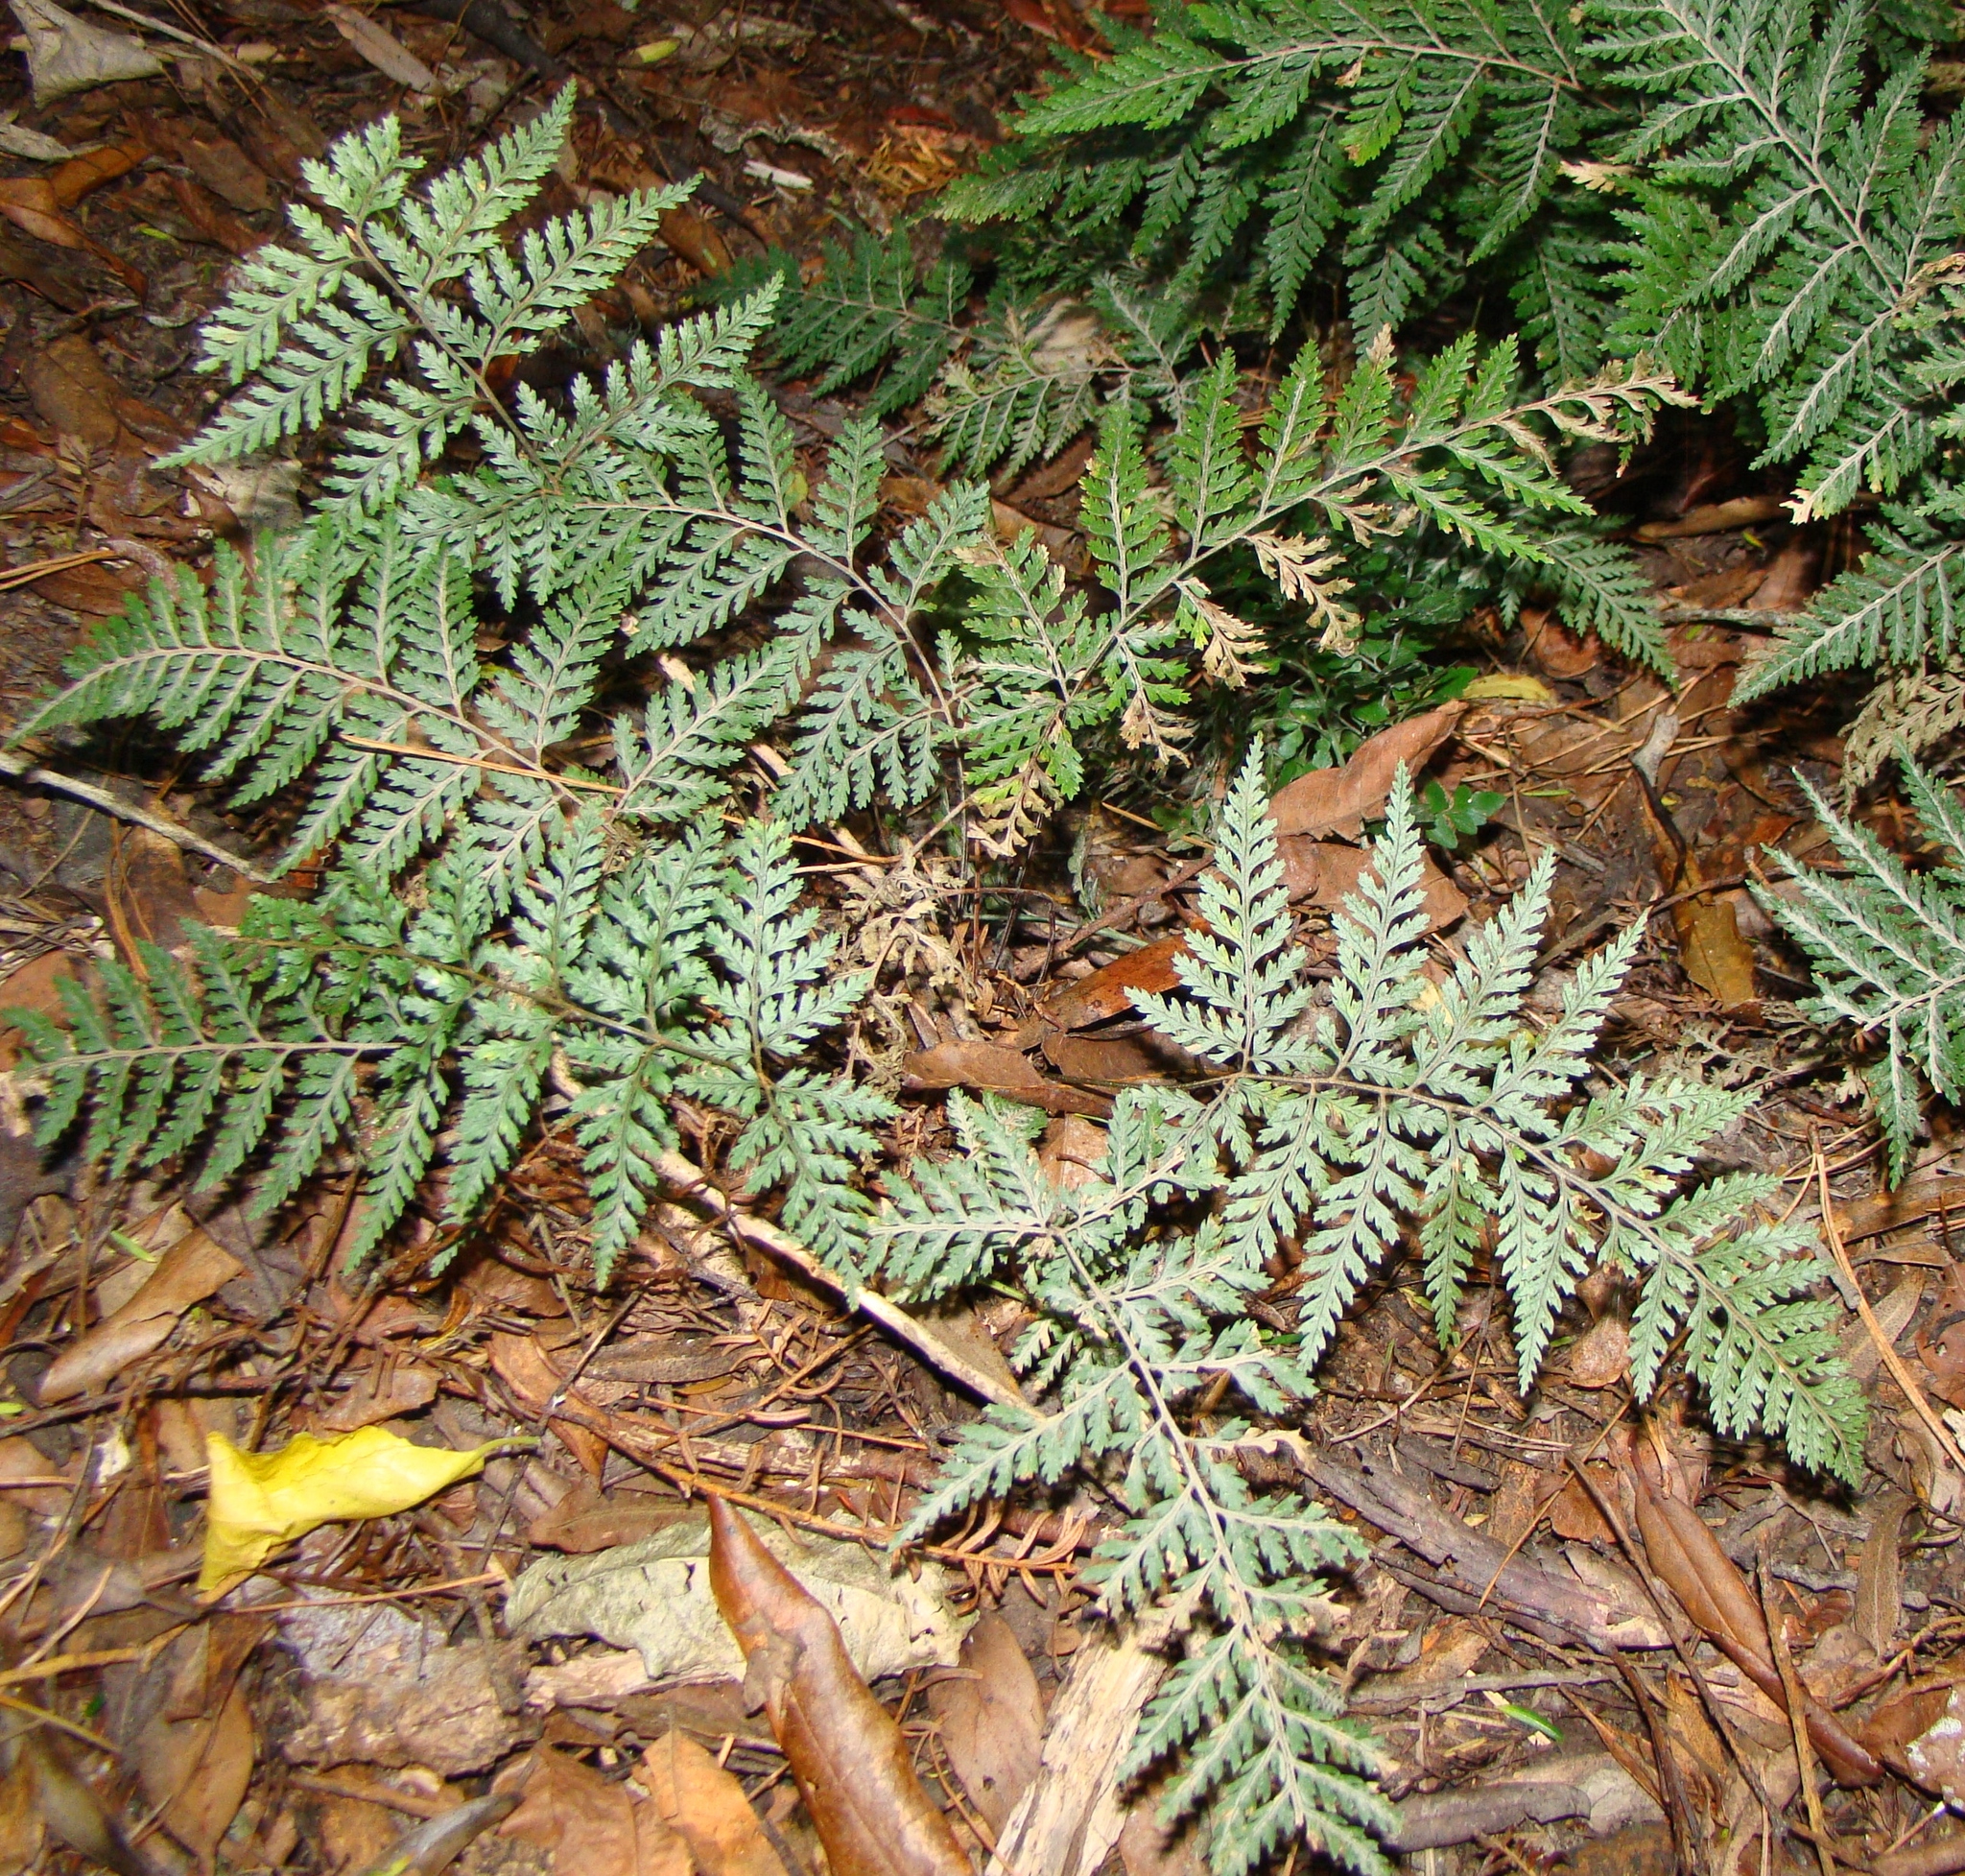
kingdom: Plantae
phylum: Tracheophyta
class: Polypodiopsida
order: Polypodiales
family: Dryopteridaceae
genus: Parapolystichum
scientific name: Parapolystichum glabellum
